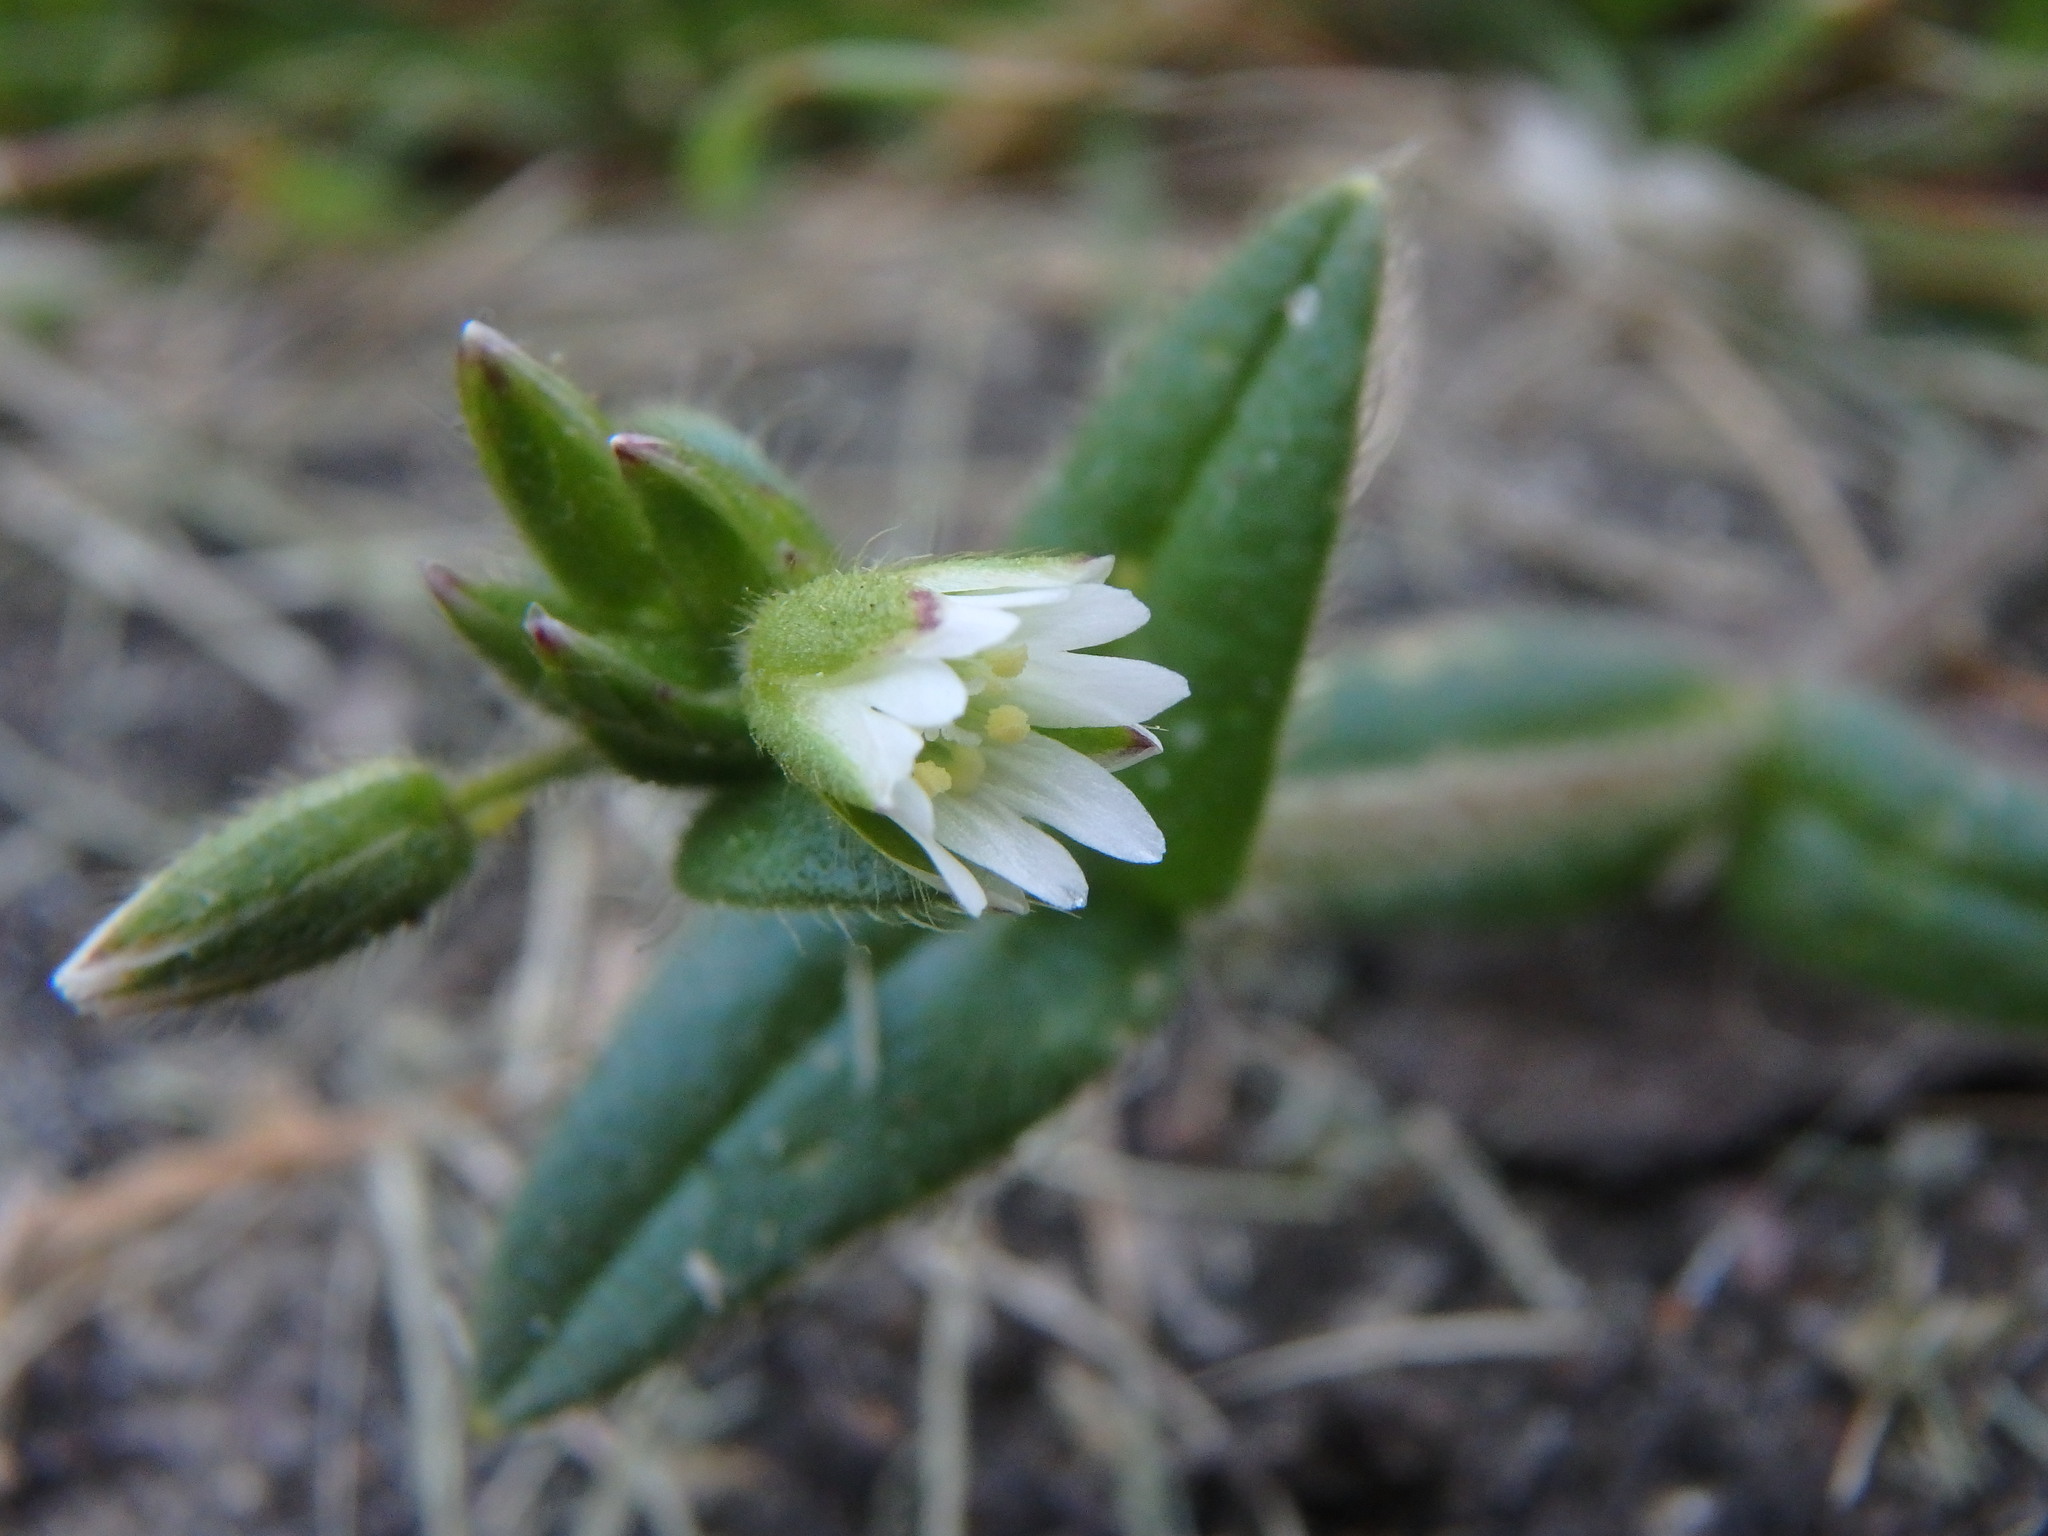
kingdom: Plantae
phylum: Tracheophyta
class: Magnoliopsida
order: Caryophyllales
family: Caryophyllaceae
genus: Cerastium
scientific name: Cerastium fontanum
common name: Common mouse-ear
